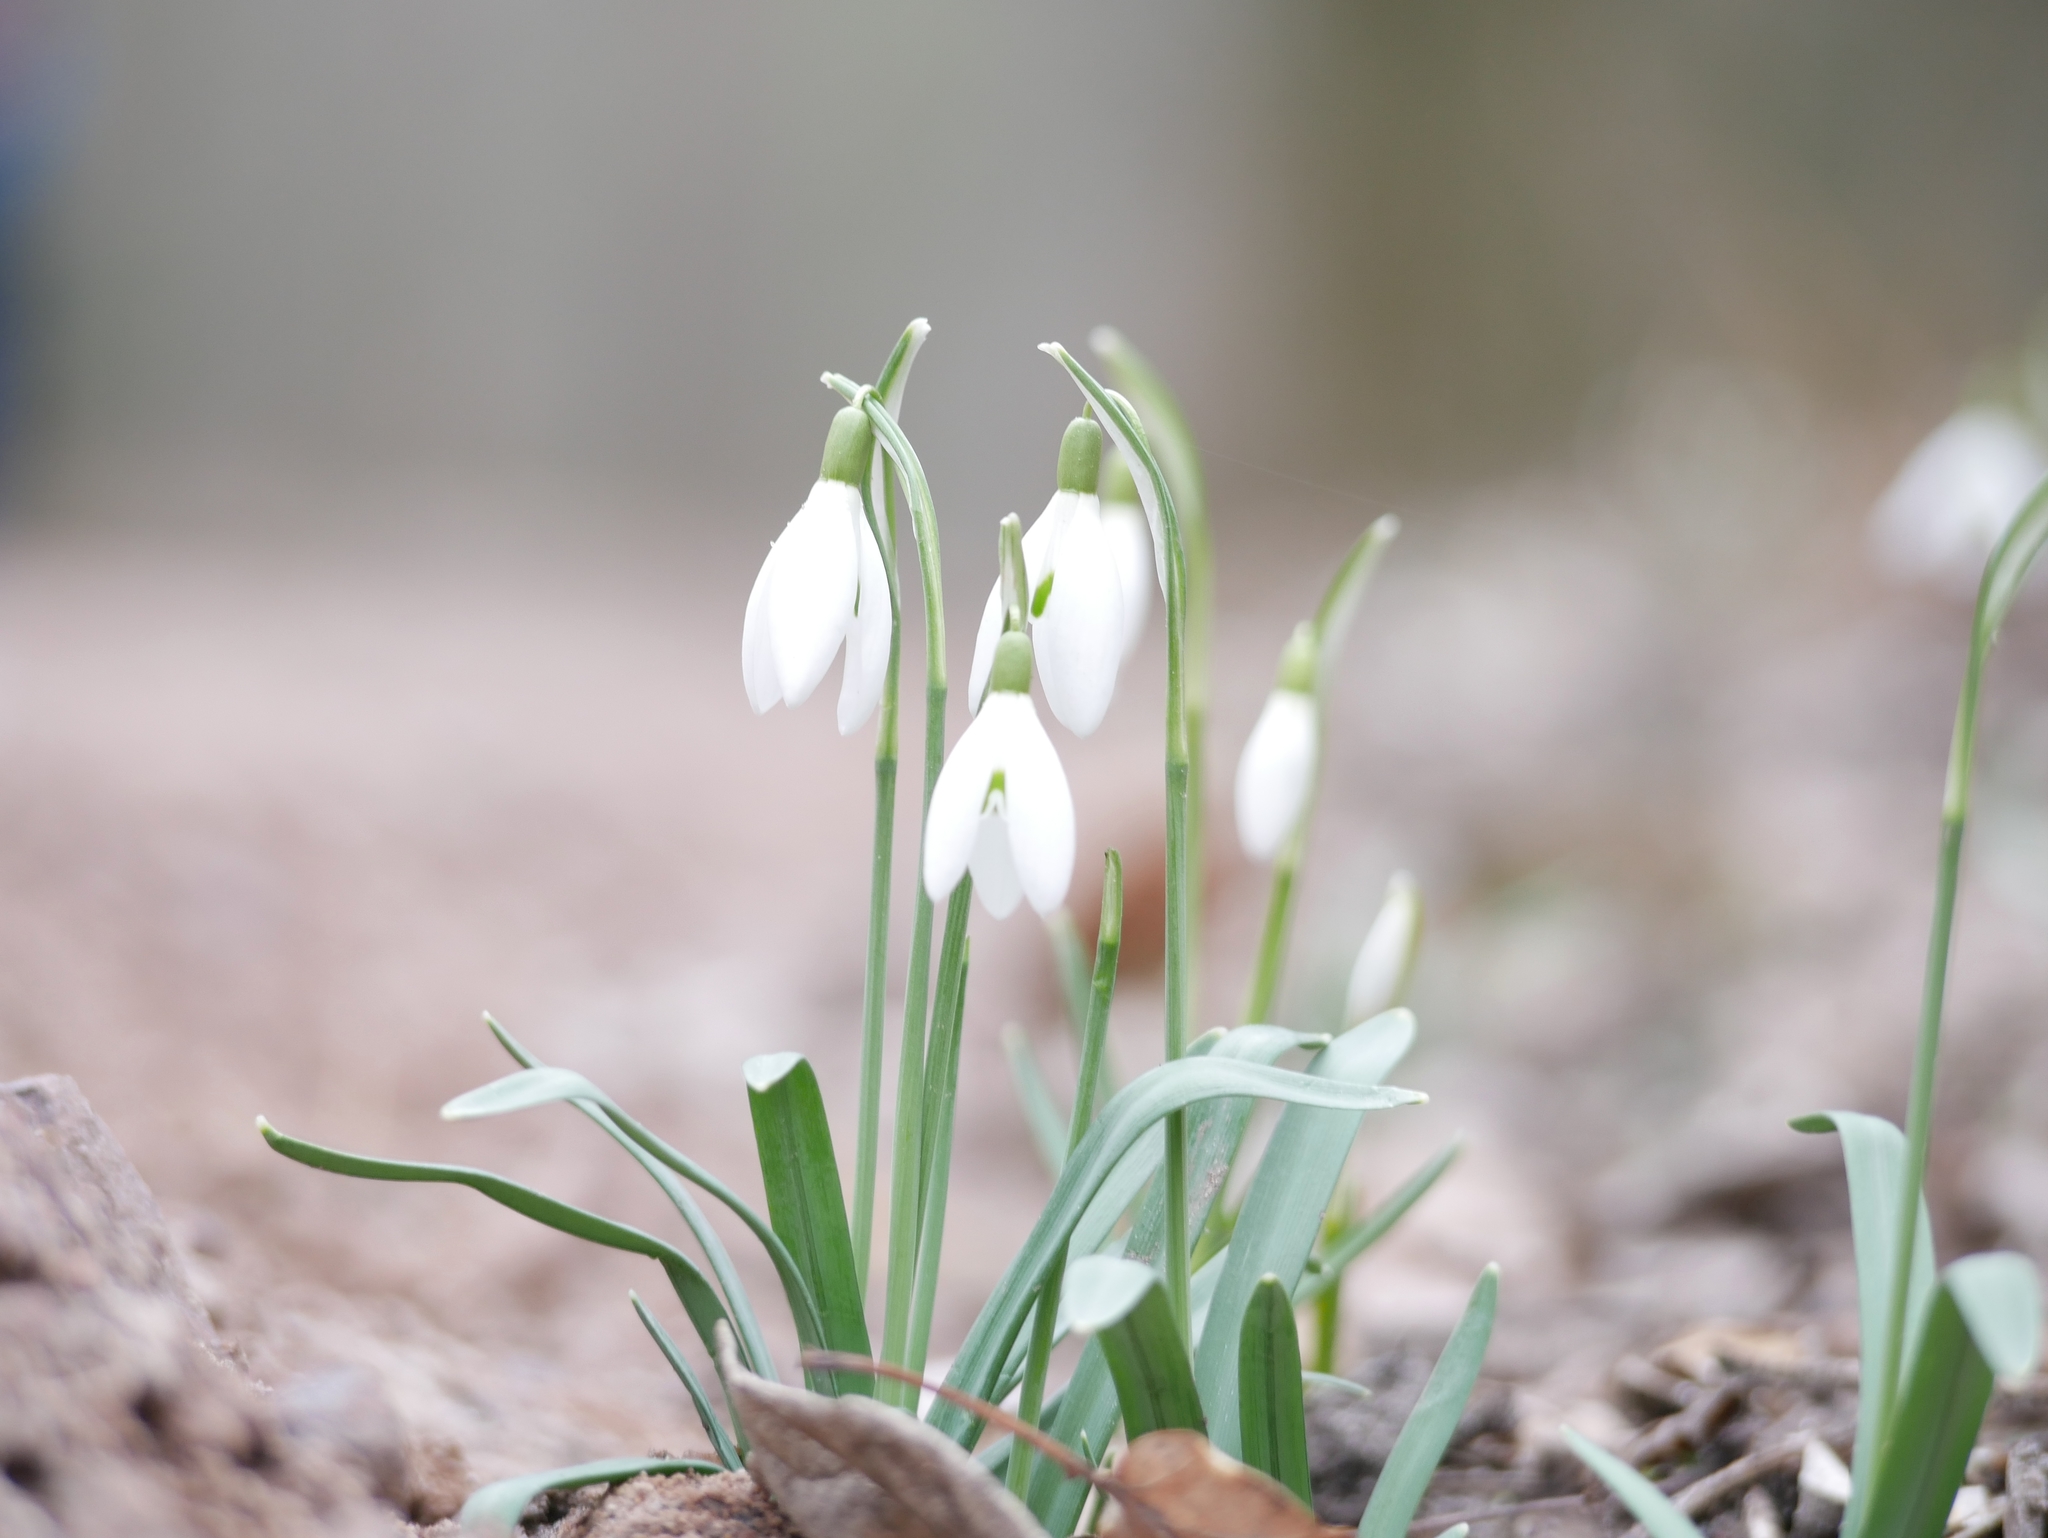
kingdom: Plantae
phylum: Tracheophyta
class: Liliopsida
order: Asparagales
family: Amaryllidaceae
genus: Galanthus
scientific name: Galanthus nivalis
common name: Snowdrop
